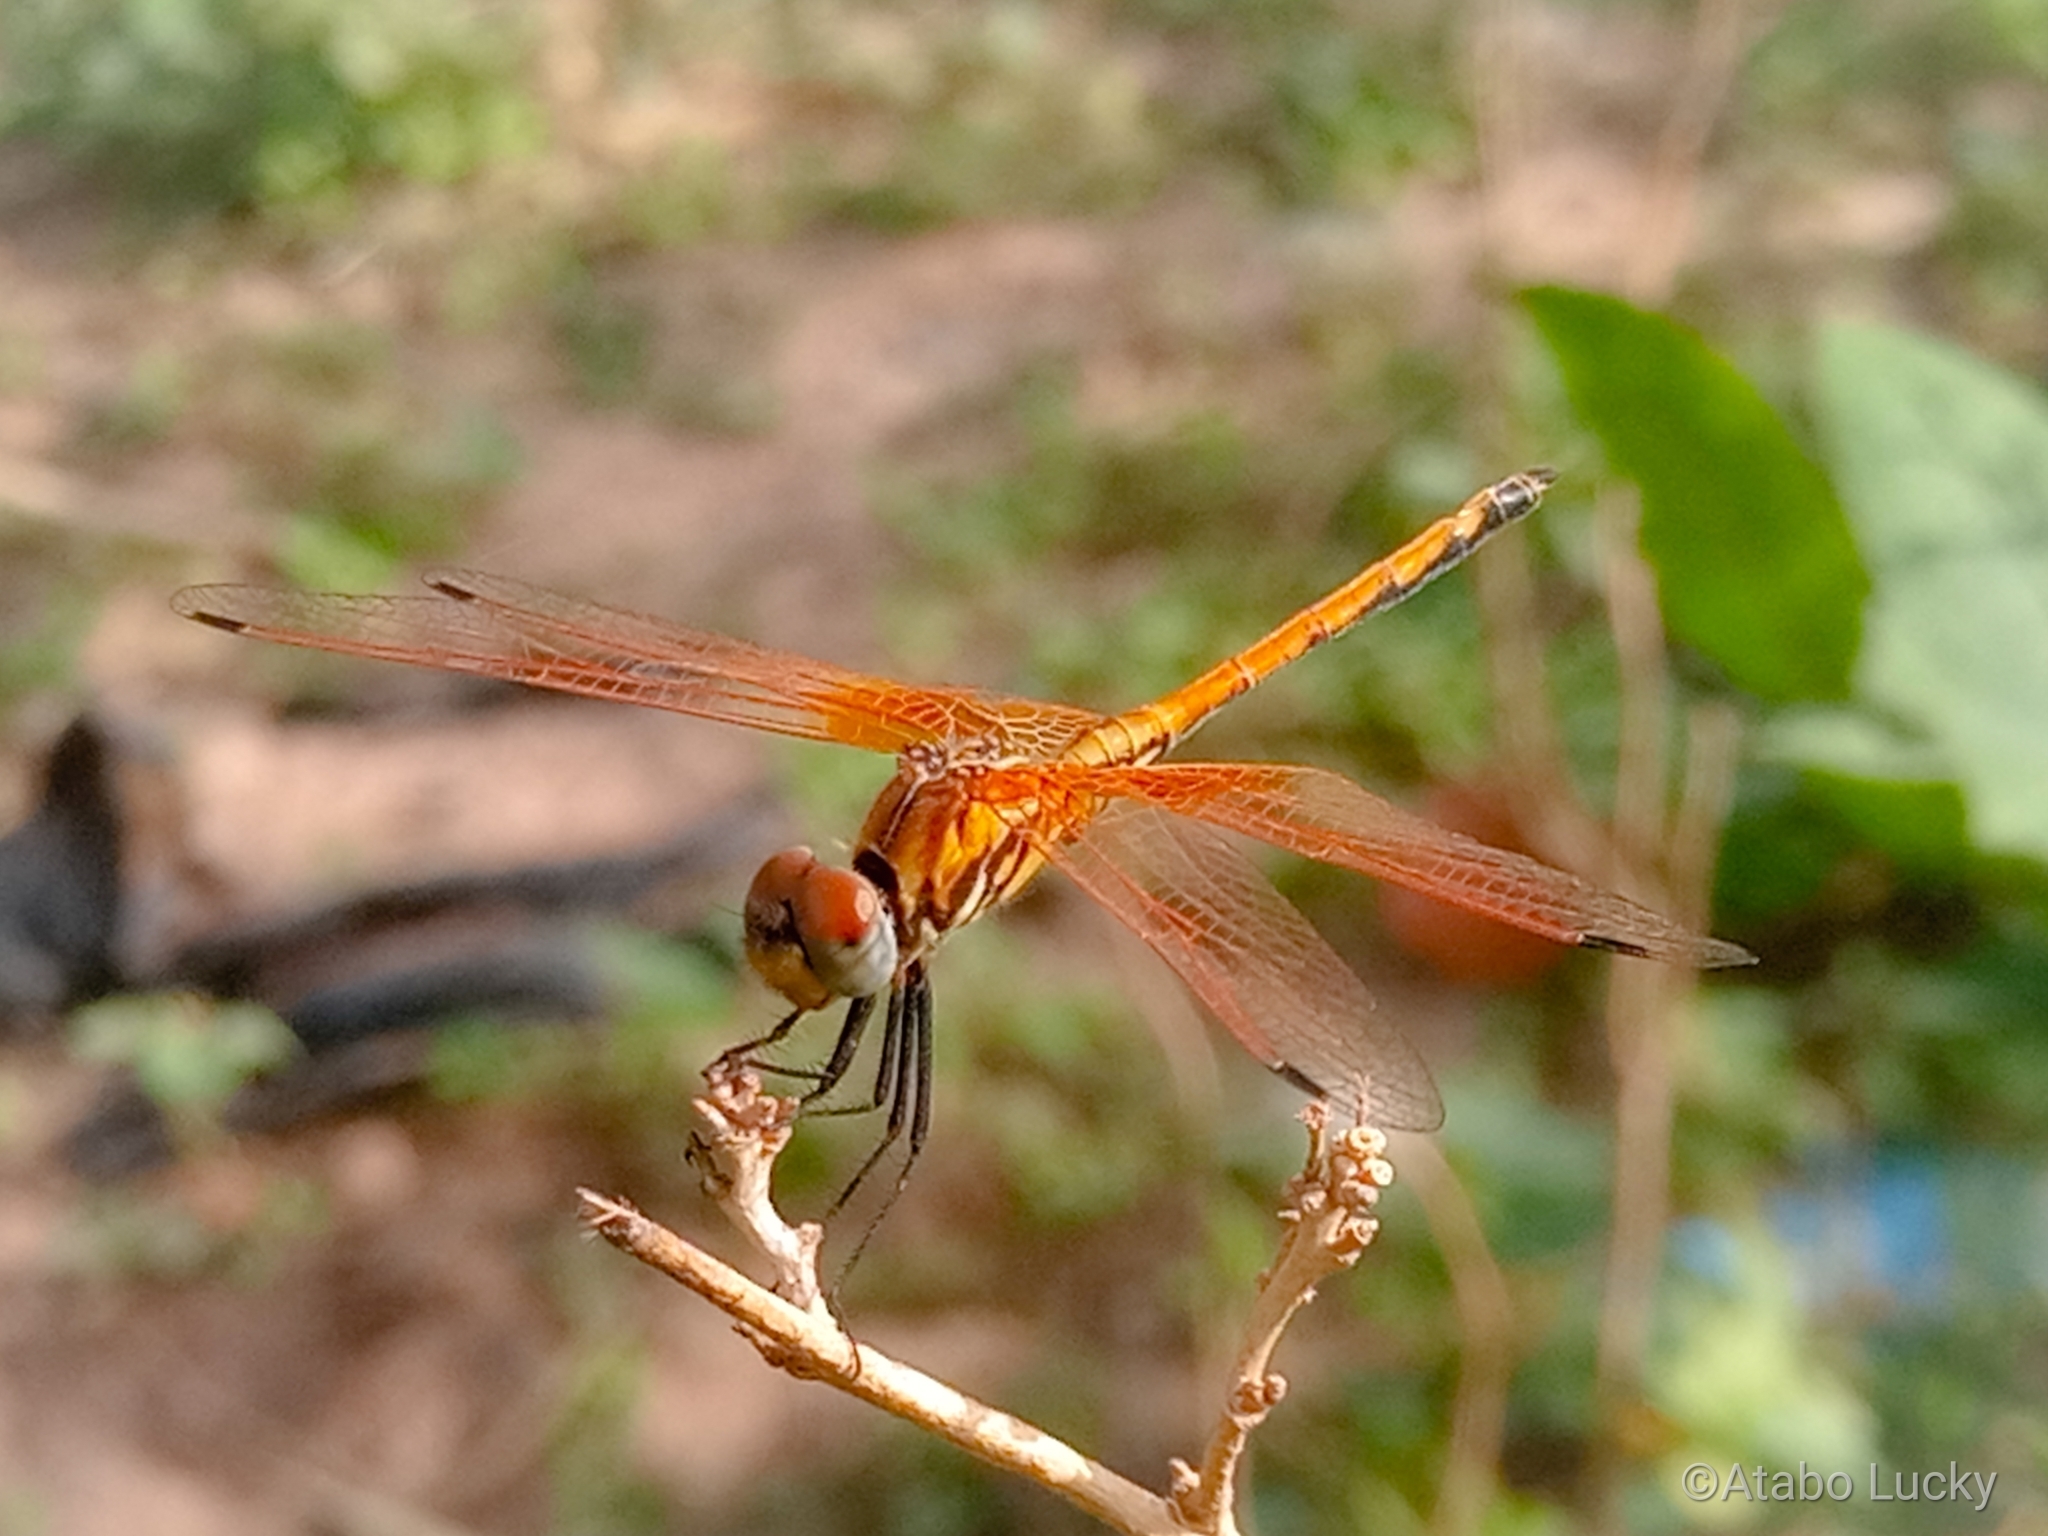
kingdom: Animalia
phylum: Arthropoda
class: Insecta
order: Odonata
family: Libellulidae
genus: Trithemis
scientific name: Trithemis arteriosa
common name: Red-veined dropwing
